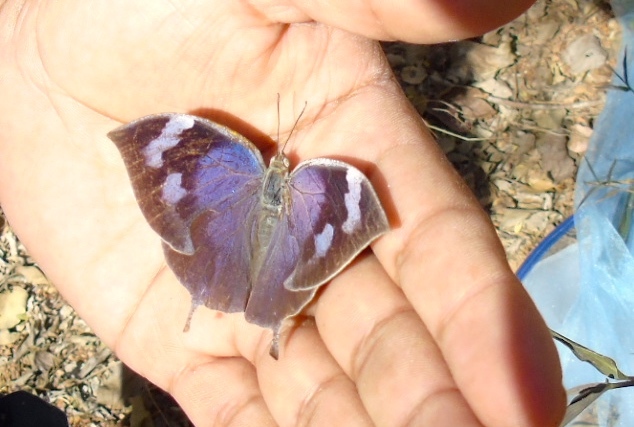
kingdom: Animalia
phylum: Arthropoda
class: Insecta
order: Lepidoptera
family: Nymphalidae
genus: Memphis
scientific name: Memphis forreri
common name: Forrer's leafwing
